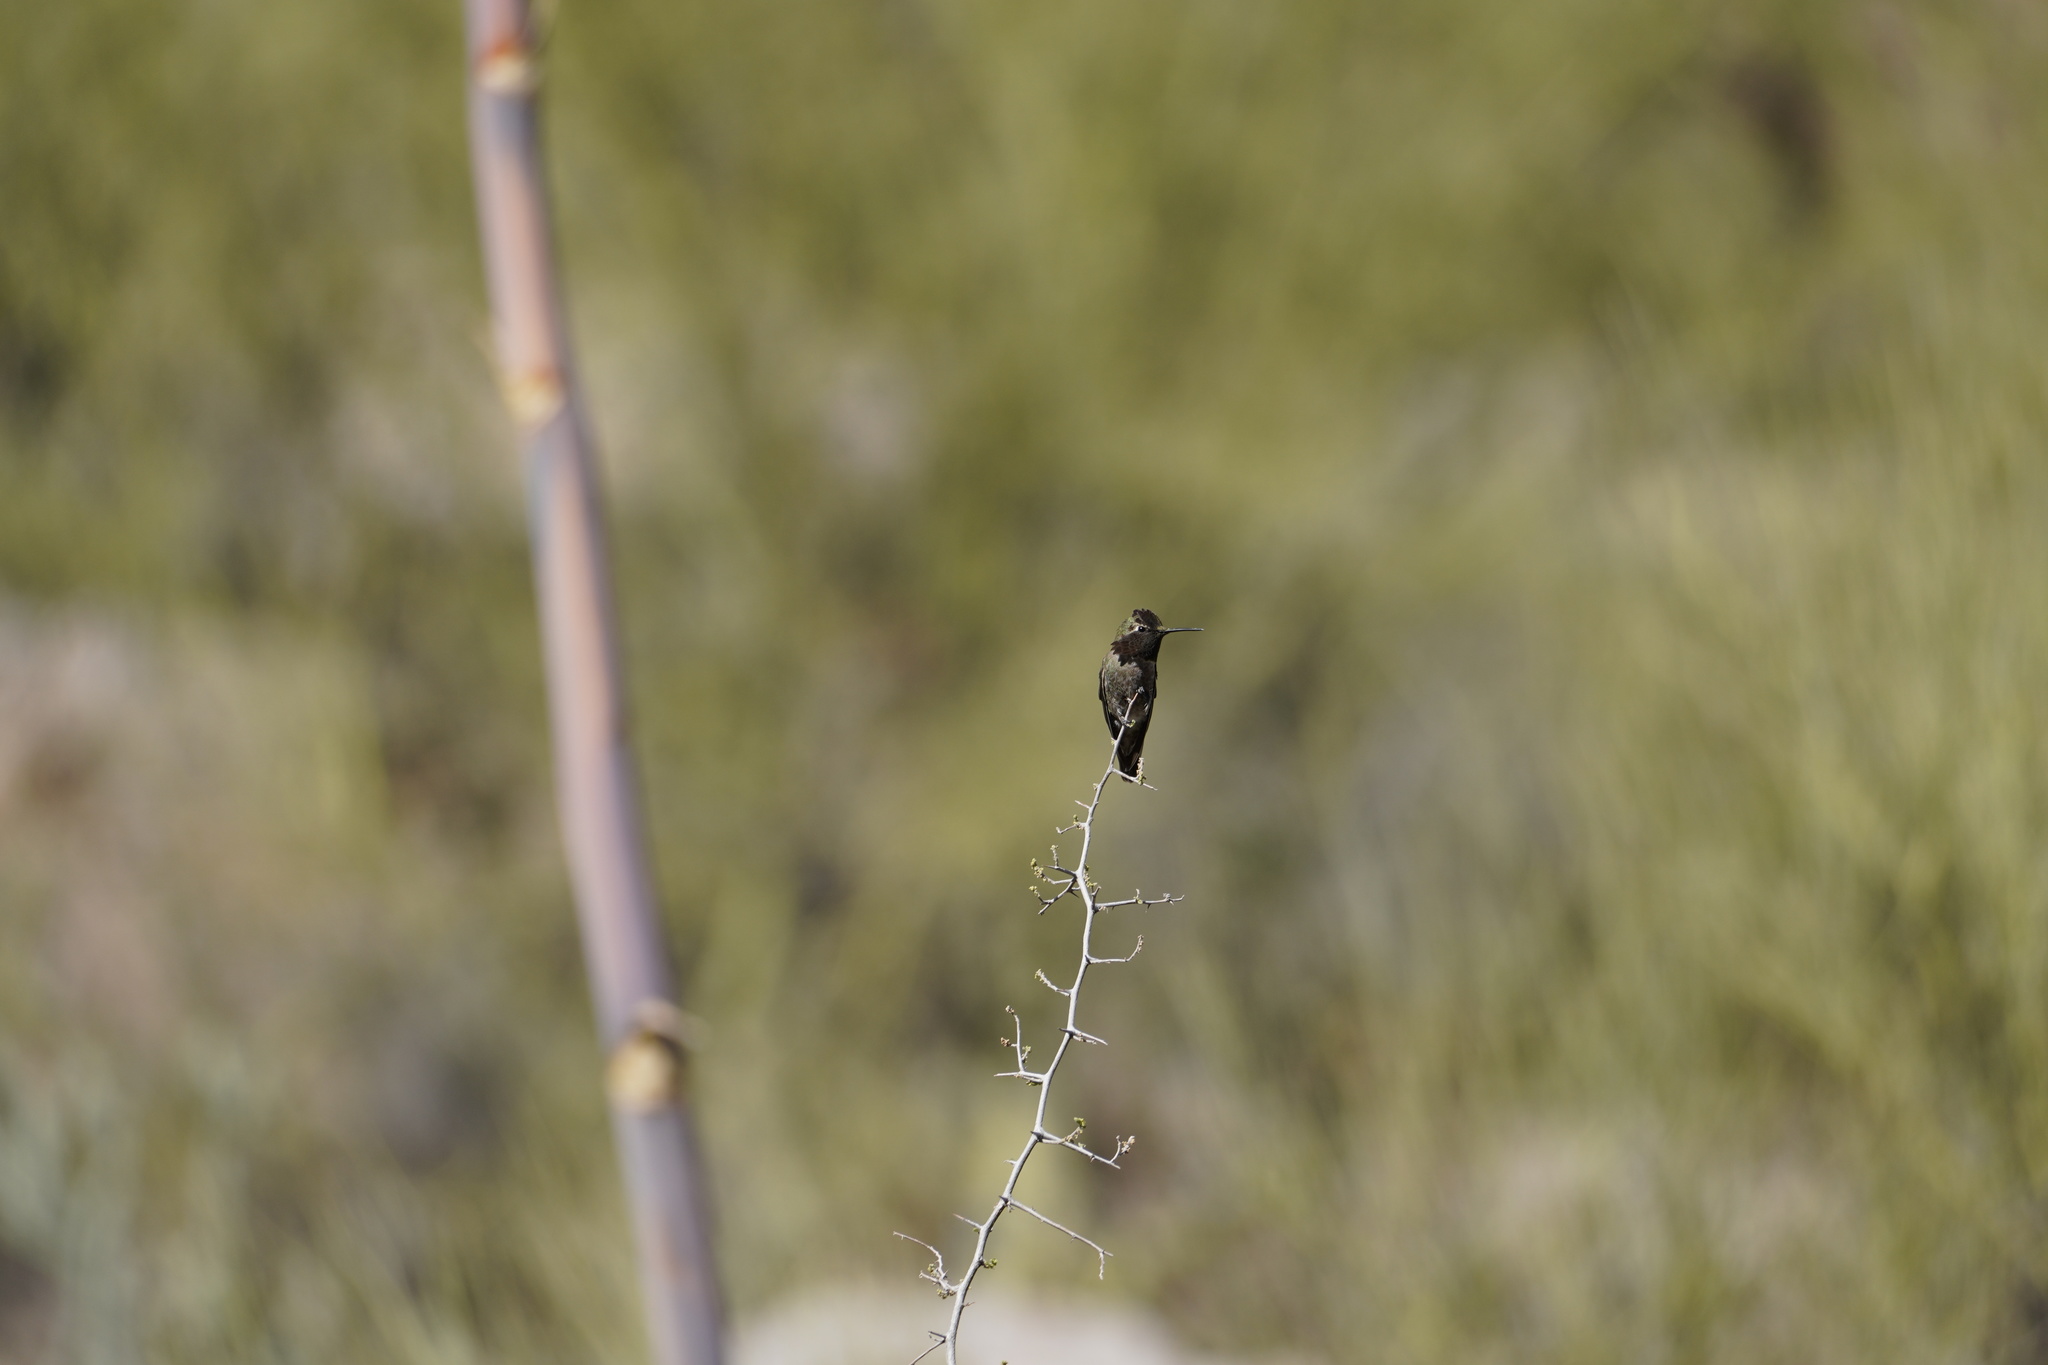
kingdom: Animalia
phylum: Chordata
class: Aves
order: Apodiformes
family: Trochilidae
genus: Calypte
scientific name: Calypte anna
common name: Anna's hummingbird
